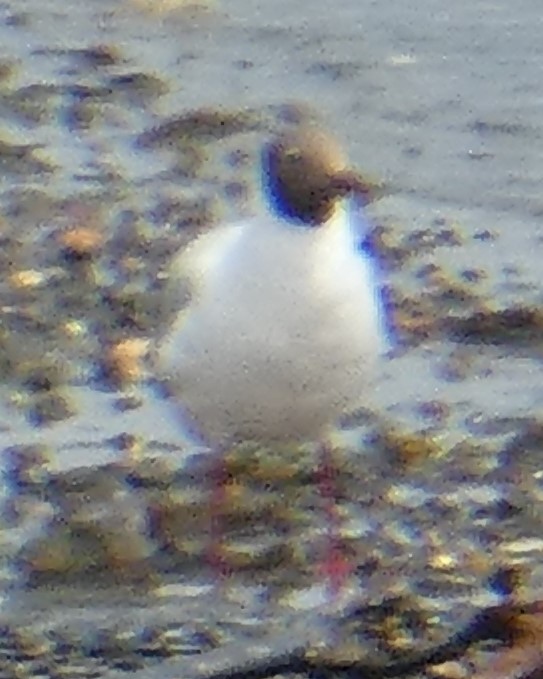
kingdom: Animalia
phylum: Chordata
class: Aves
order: Charadriiformes
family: Laridae
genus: Chroicocephalus
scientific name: Chroicocephalus ridibundus
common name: Black-headed gull
